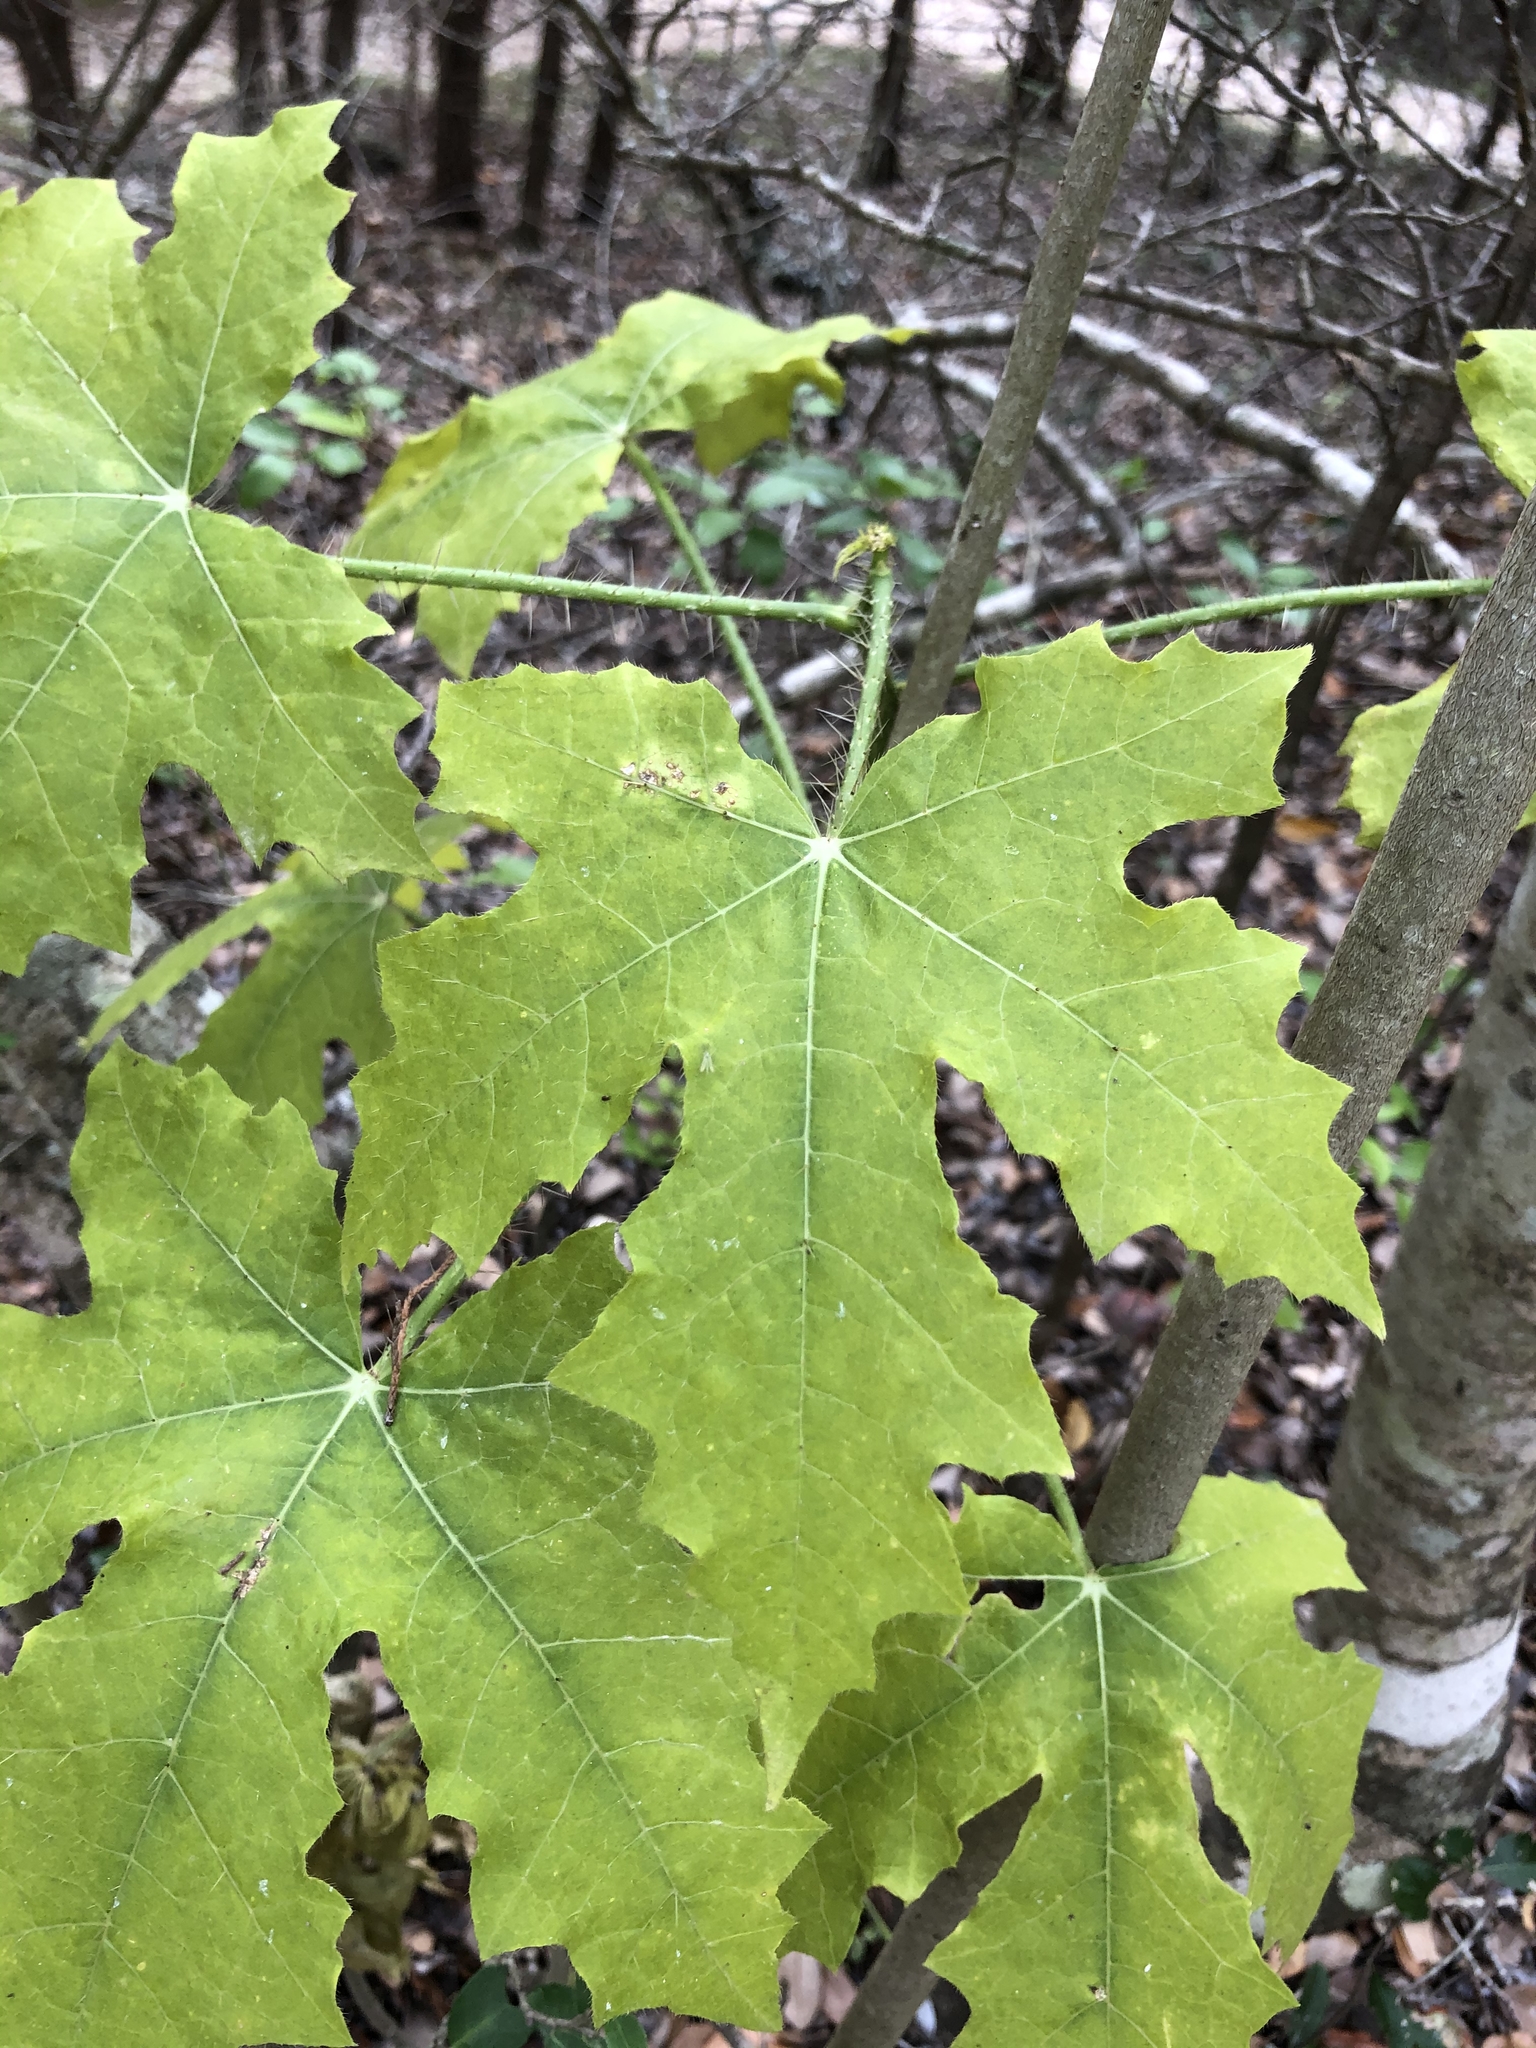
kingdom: Plantae
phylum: Tracheophyta
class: Magnoliopsida
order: Malpighiales
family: Euphorbiaceae
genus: Cnidoscolus
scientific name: Cnidoscolus texanus
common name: Texas bull-nettle
